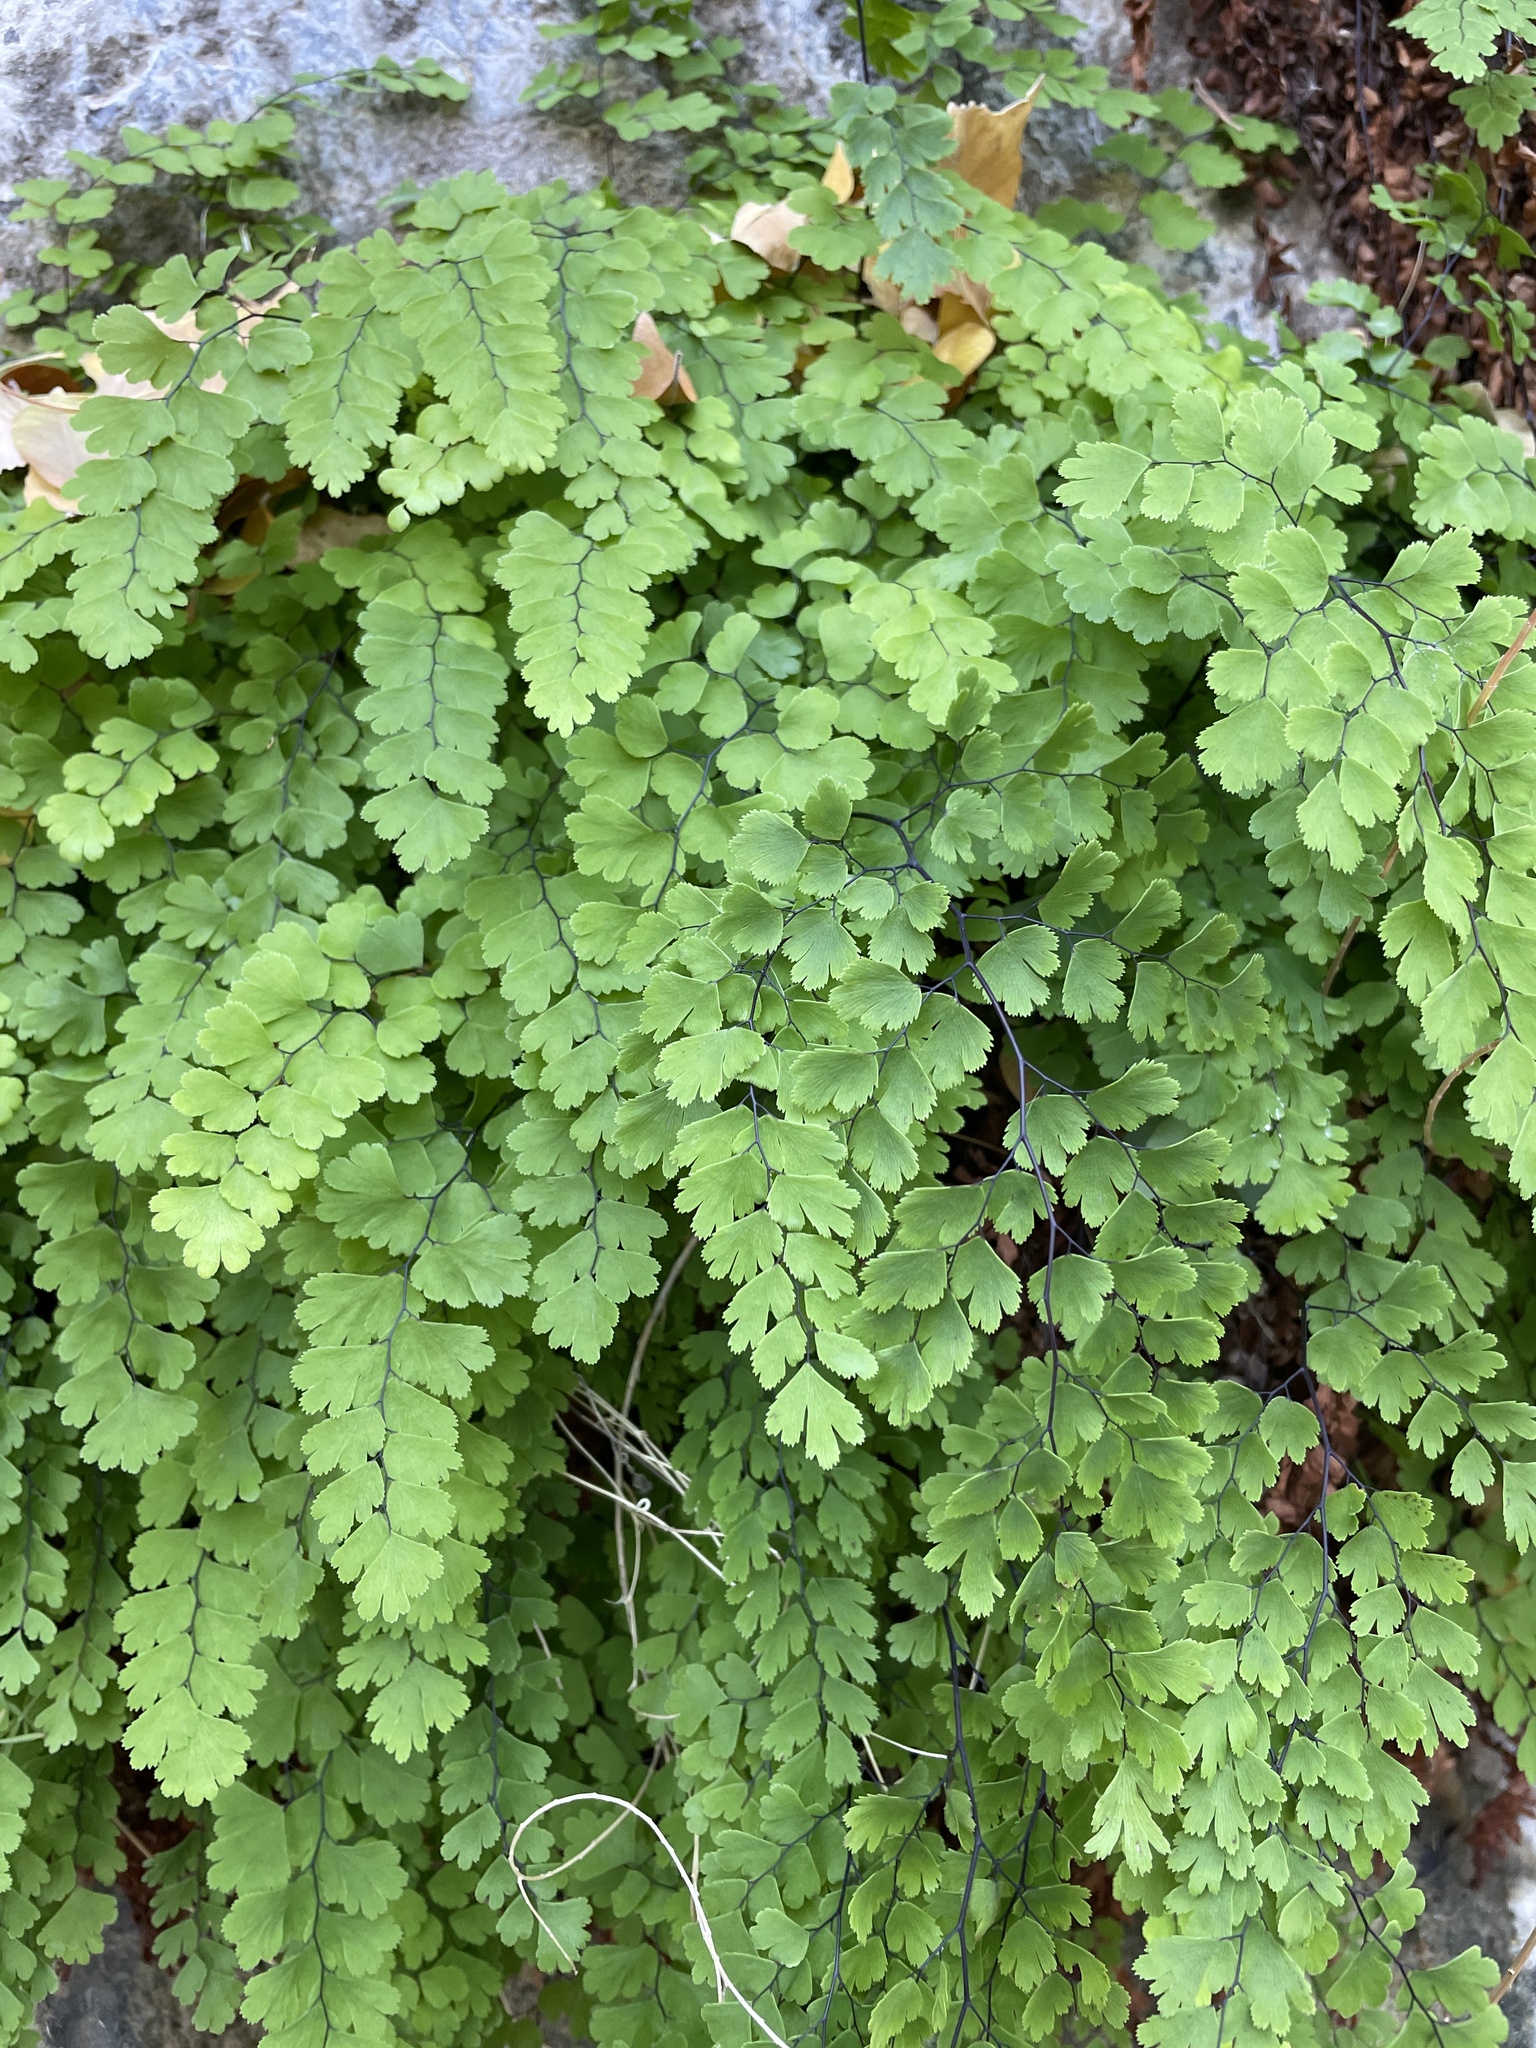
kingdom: Plantae
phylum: Tracheophyta
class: Polypodiopsida
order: Polypodiales
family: Pteridaceae
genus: Adiantum
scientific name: Adiantum capillus-veneris
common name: Maidenhair fern
